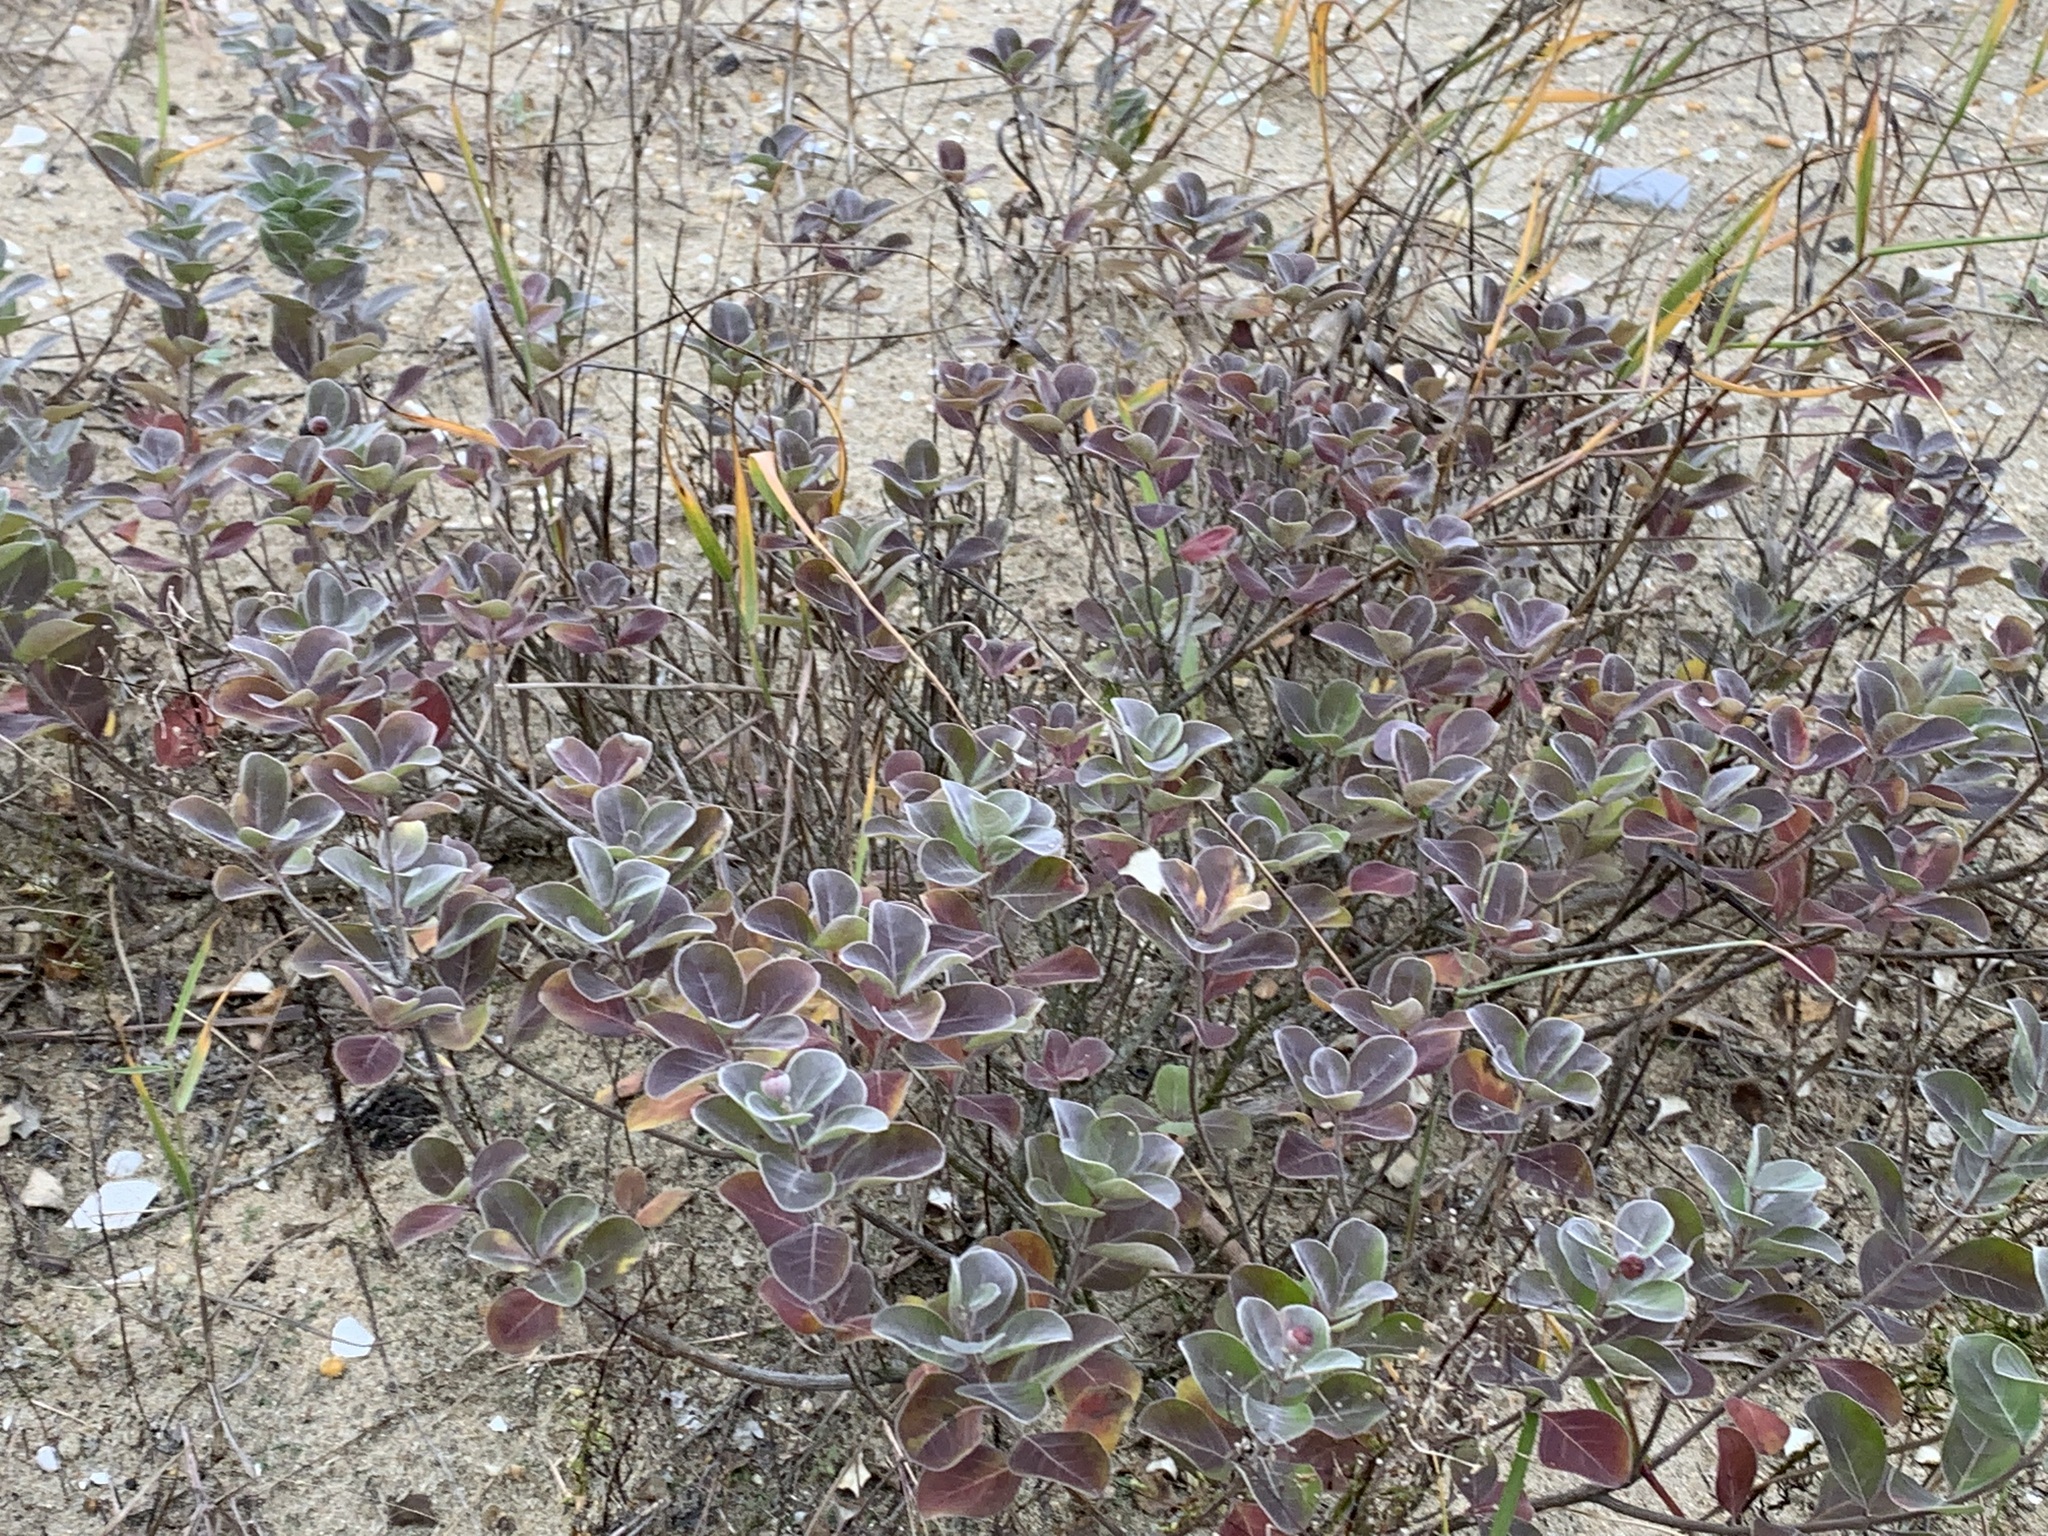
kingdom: Plantae
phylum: Tracheophyta
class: Magnoliopsida
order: Lamiales
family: Lamiaceae
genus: Vitex
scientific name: Vitex rotundifolia
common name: Beach vitex
